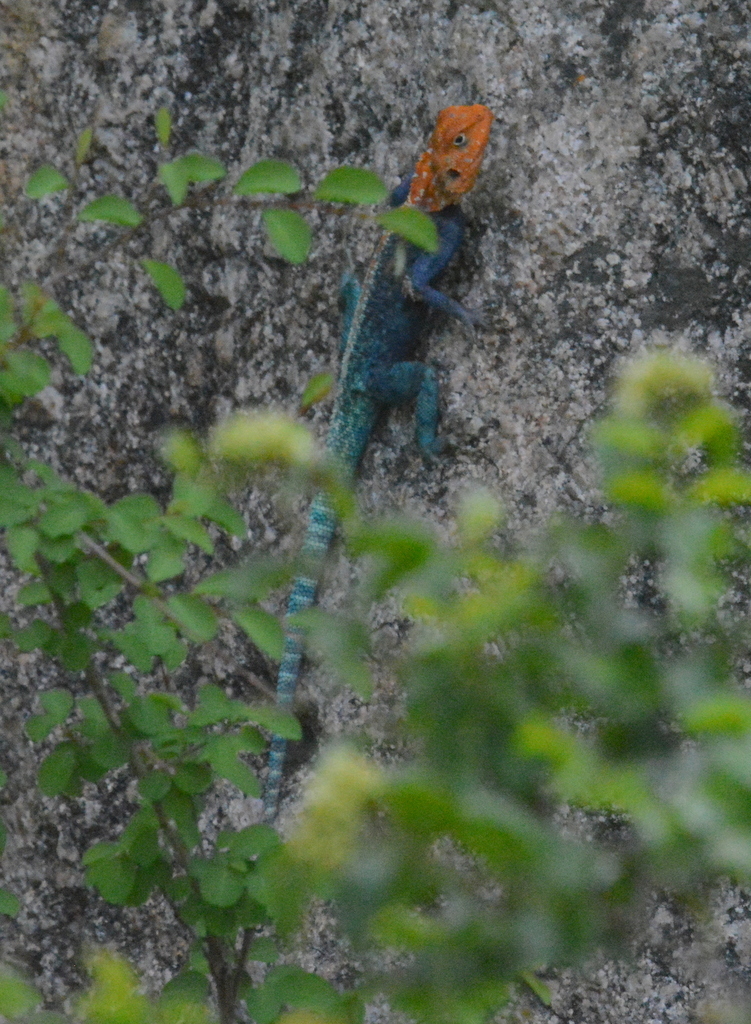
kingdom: Animalia
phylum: Chordata
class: Squamata
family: Agamidae
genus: Agama
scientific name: Agama kirkii
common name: Kirk's rock agama
